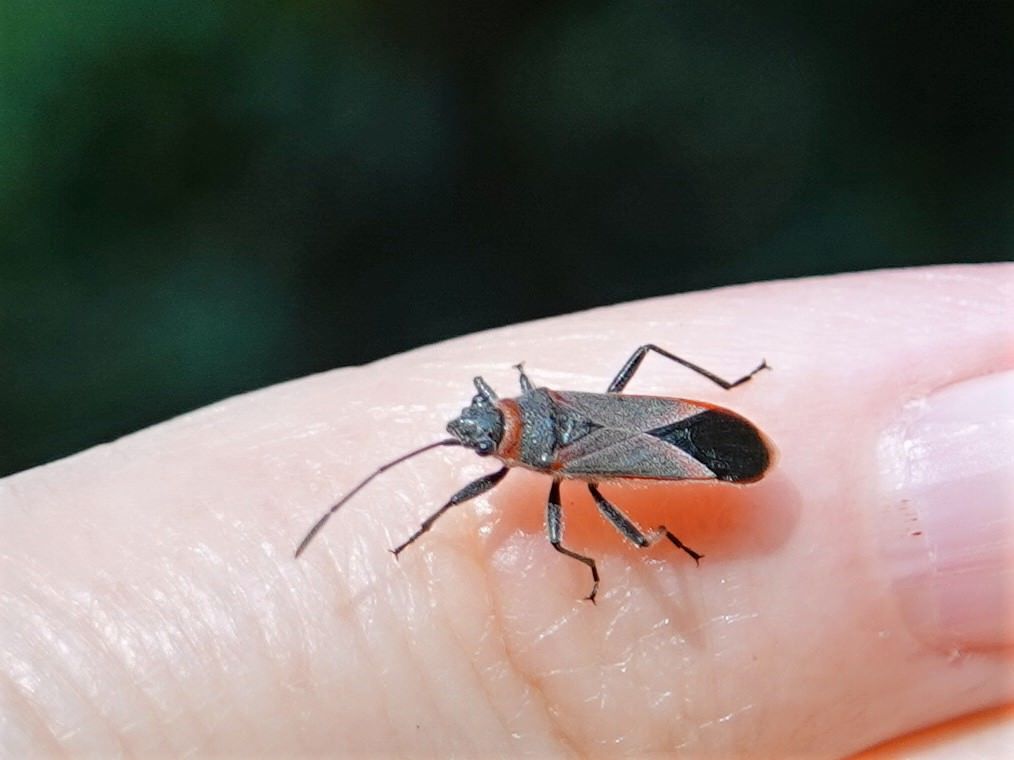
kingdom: Animalia
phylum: Arthropoda
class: Insecta
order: Hemiptera
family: Lygaeidae
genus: Arocatus
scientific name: Arocatus rusticus
